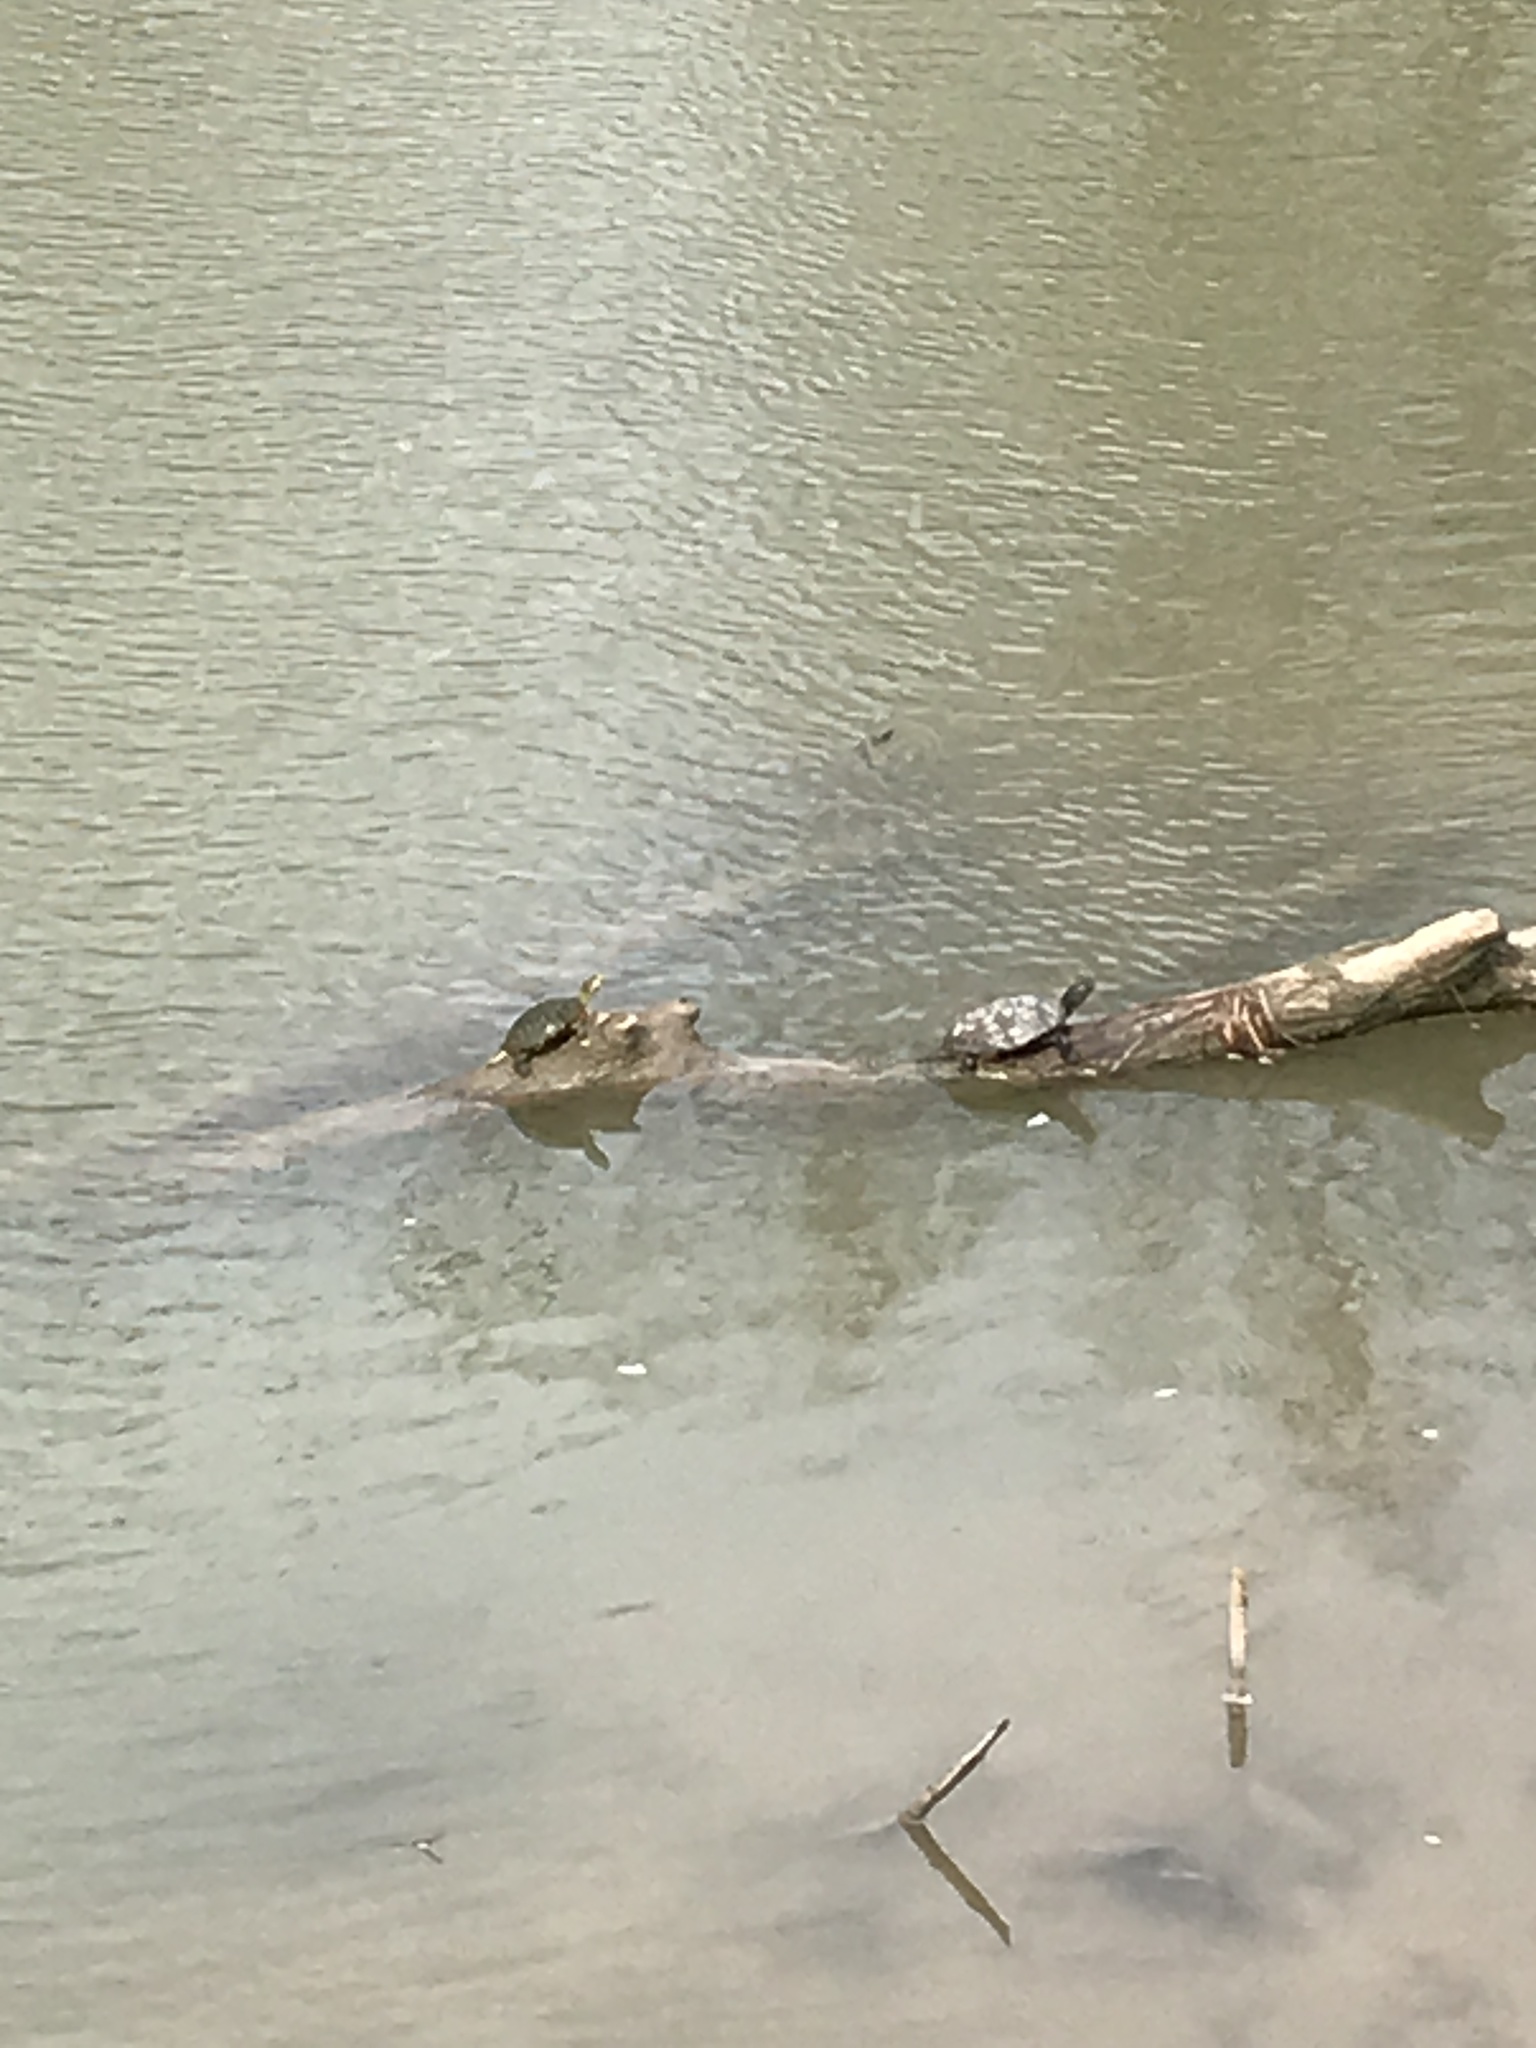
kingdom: Animalia
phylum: Chordata
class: Testudines
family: Emydidae
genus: Trachemys
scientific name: Trachemys scripta
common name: Slider
